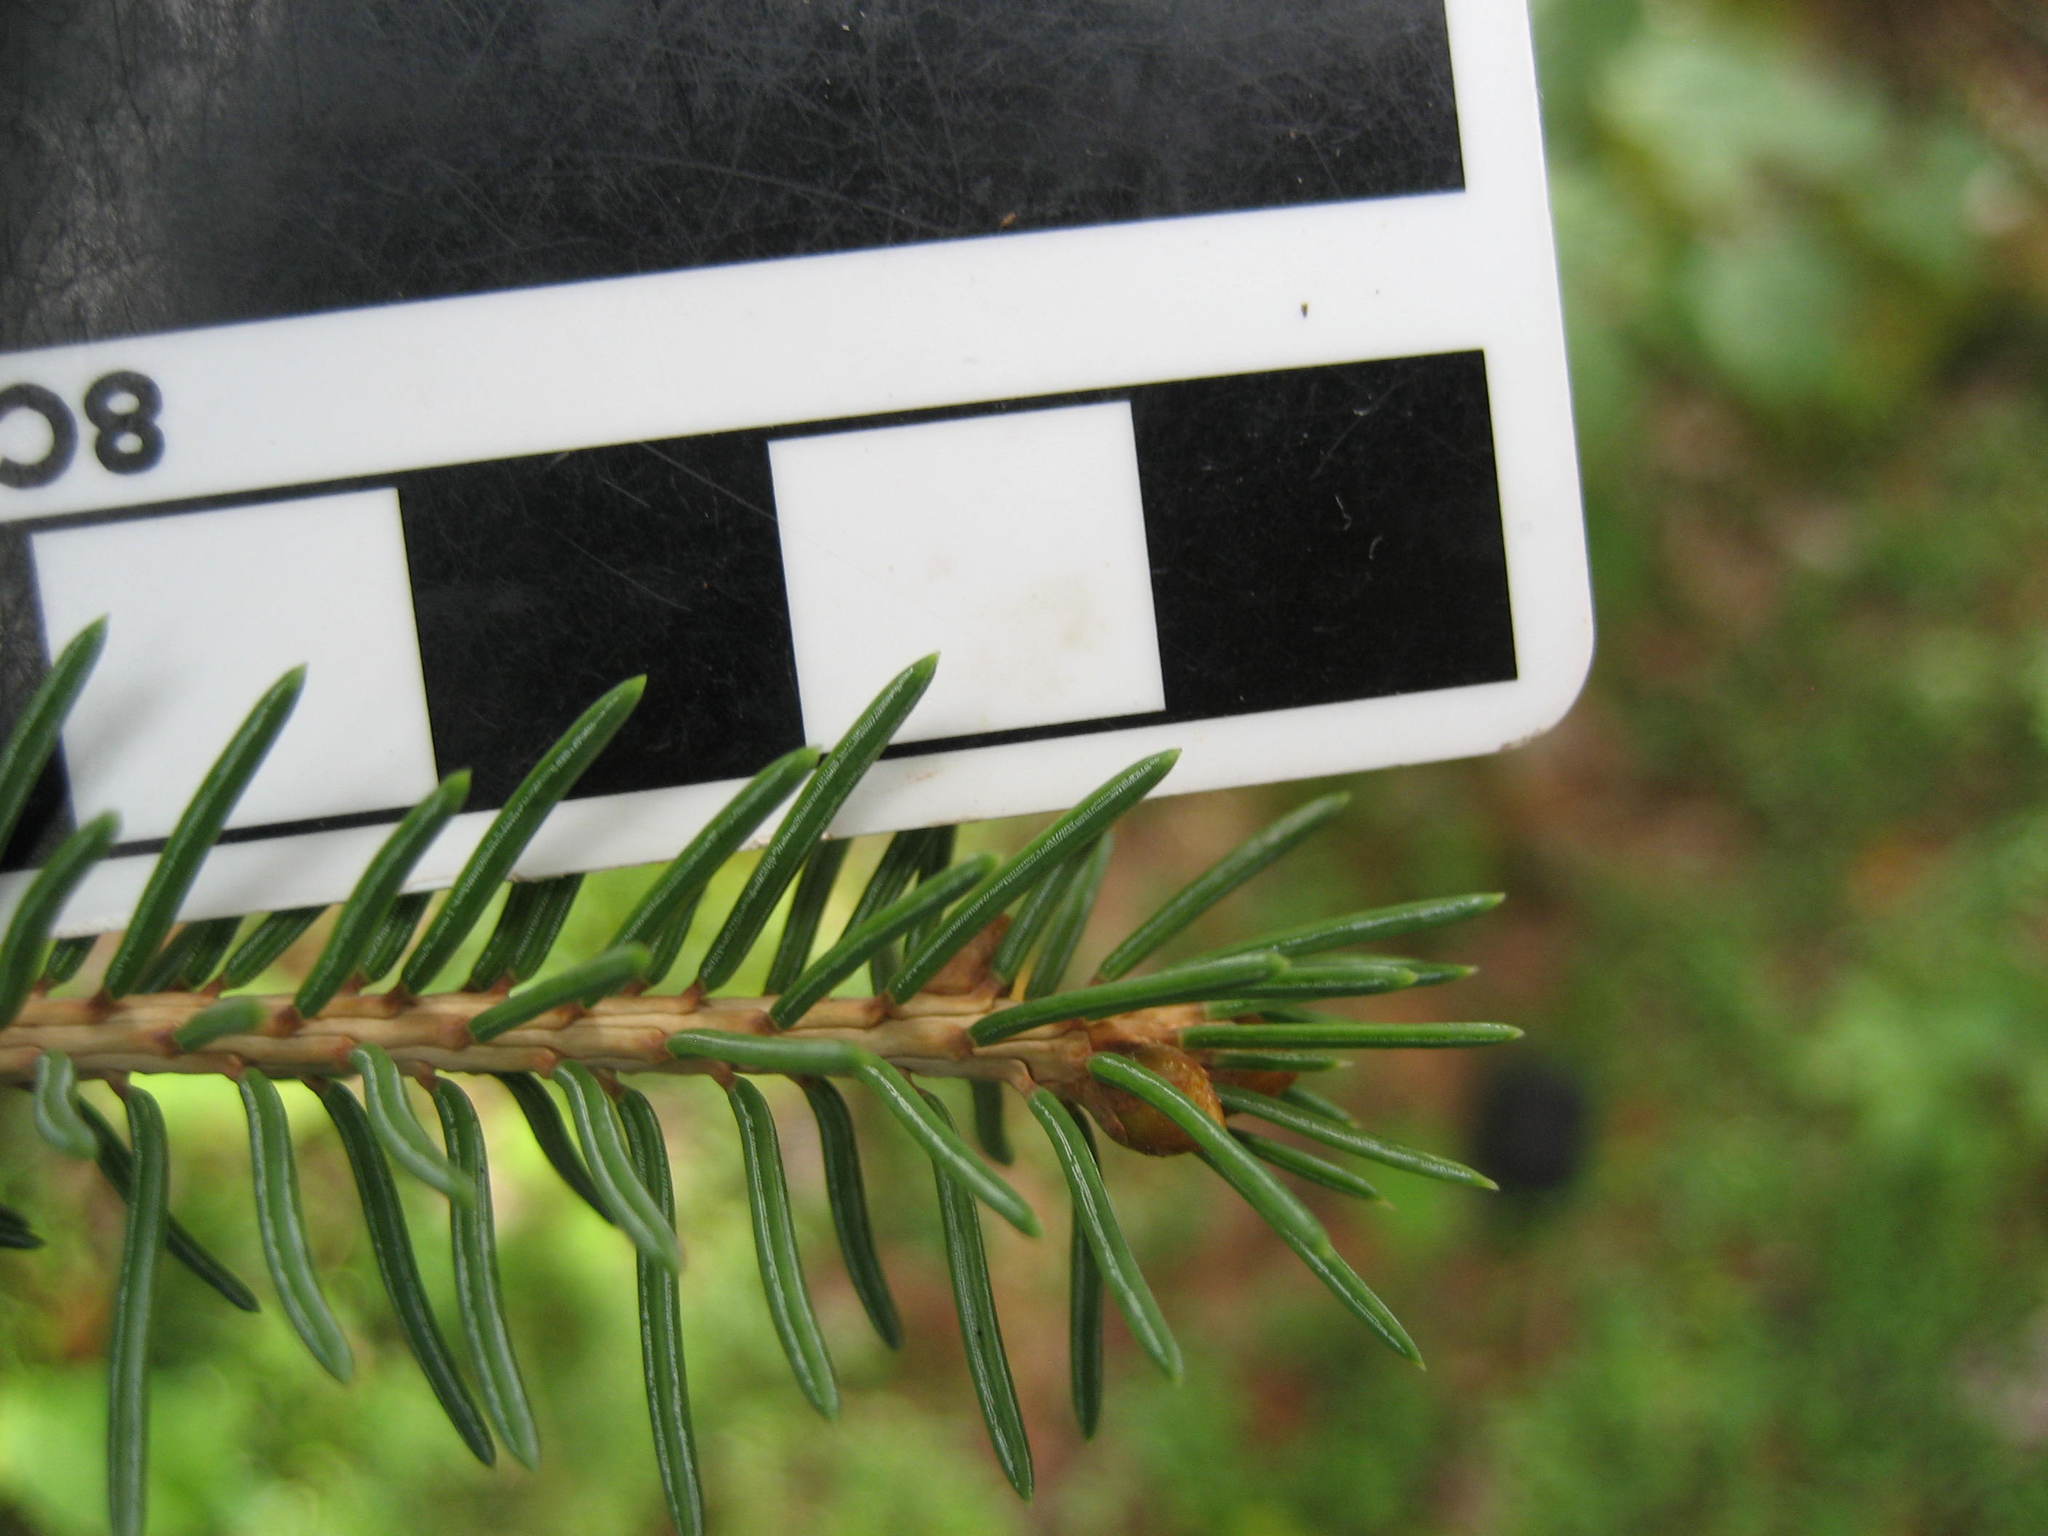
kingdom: Plantae
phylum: Tracheophyta
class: Pinopsida
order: Pinales
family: Pinaceae
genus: Picea
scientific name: Picea glauca
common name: White spruce
